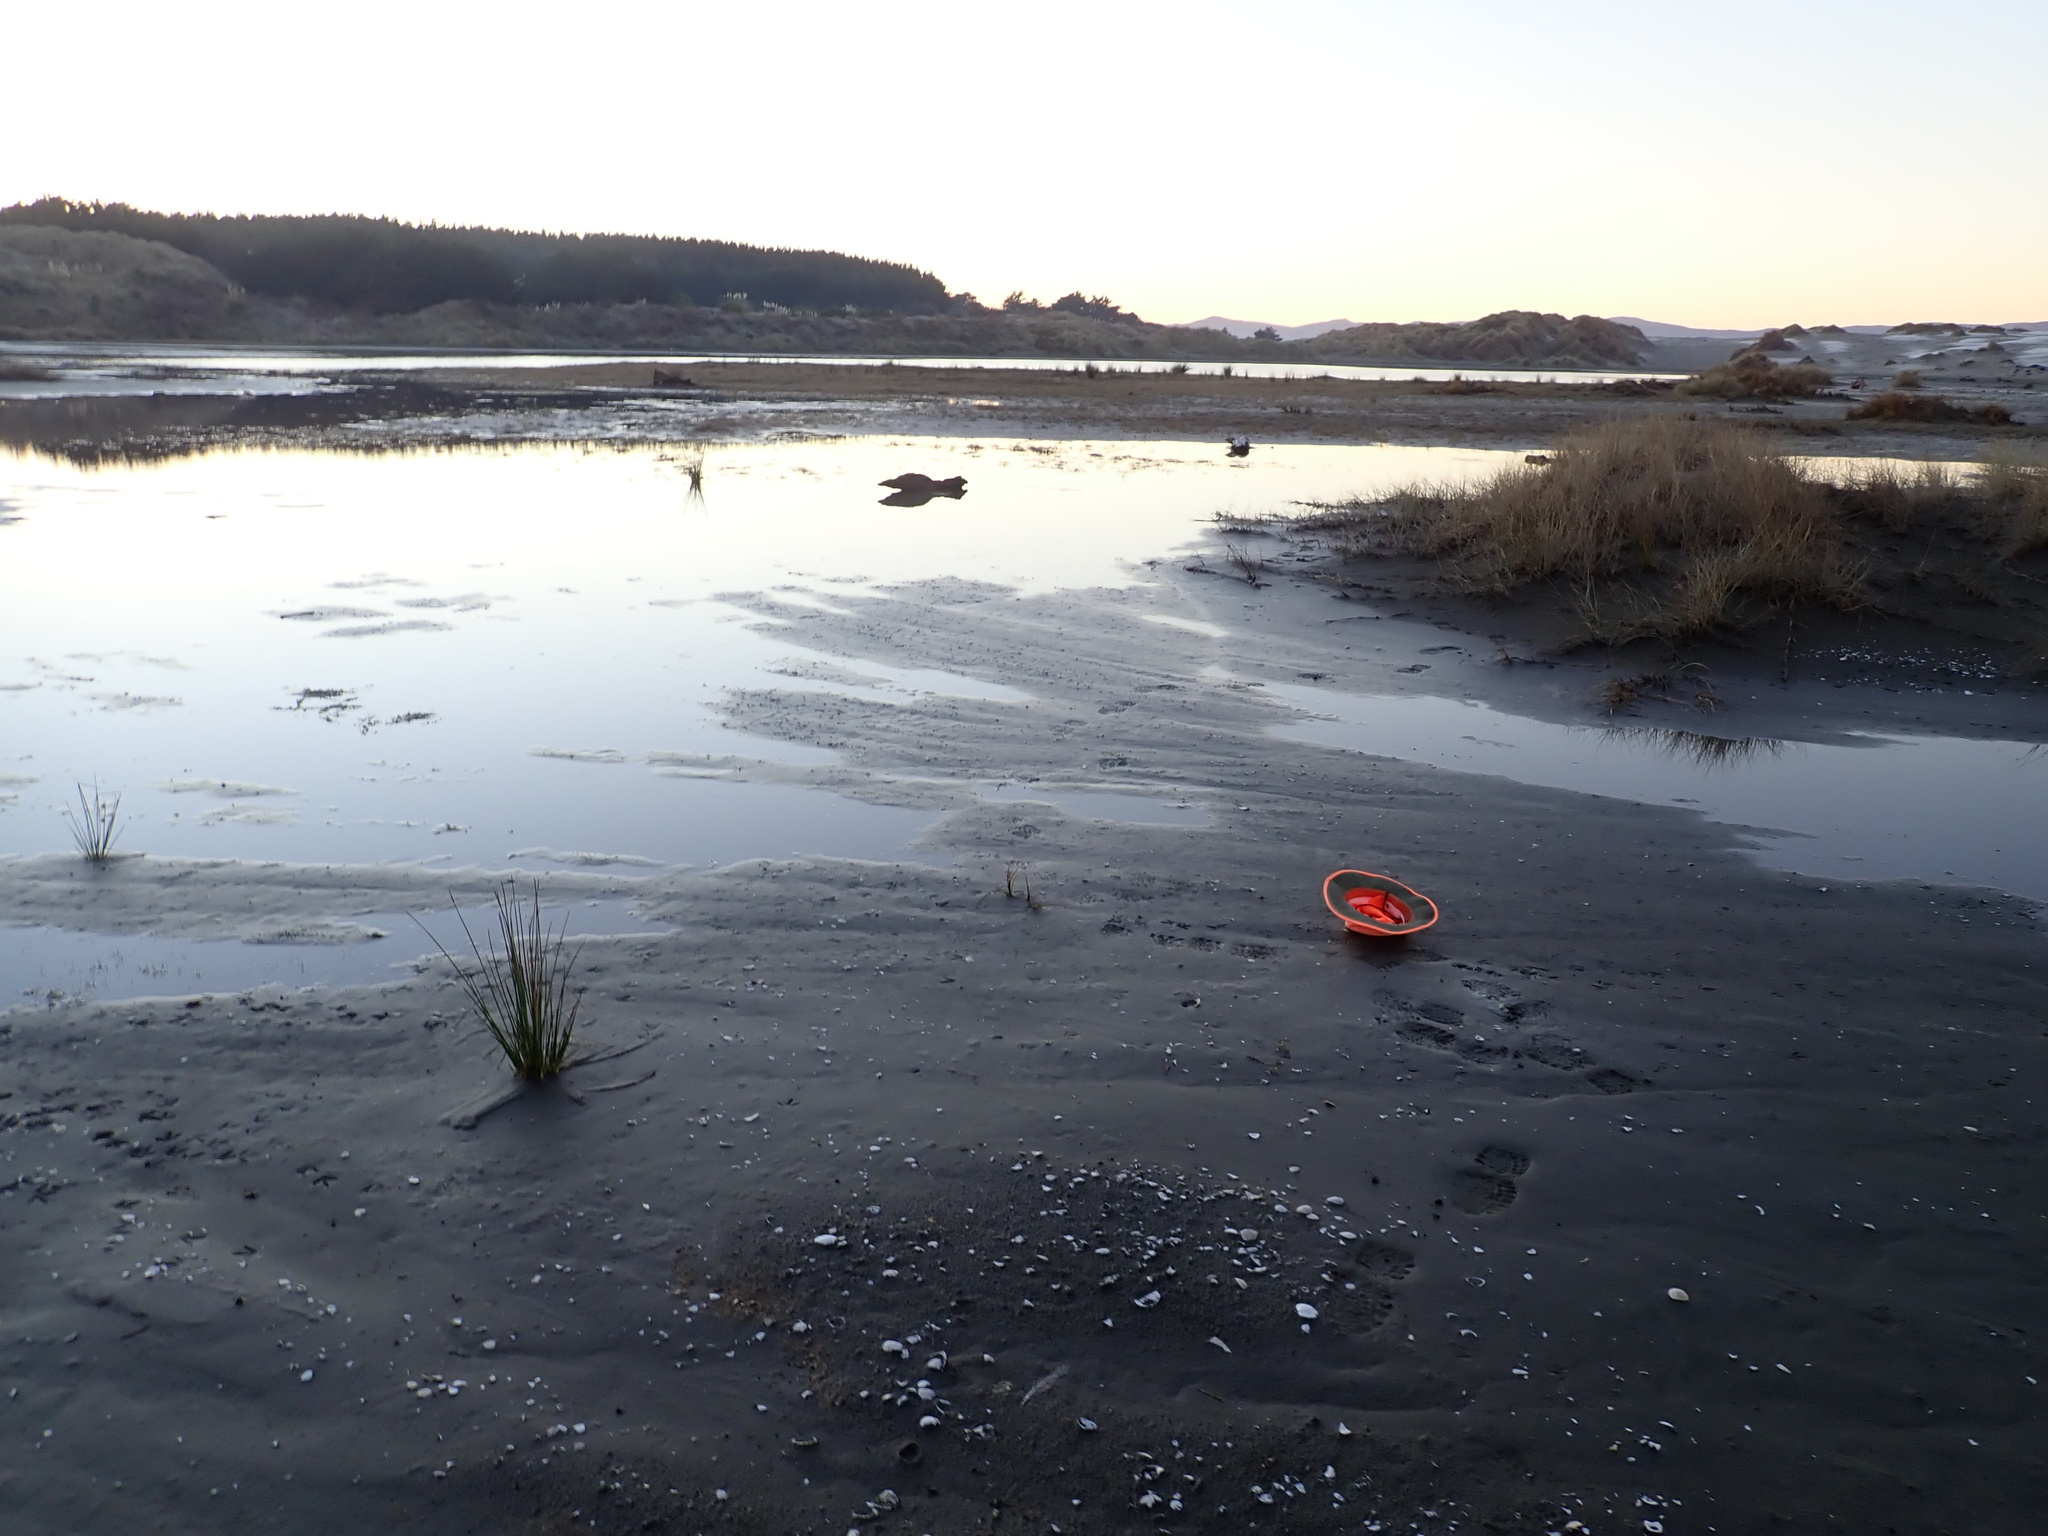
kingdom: Plantae
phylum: Tracheophyta
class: Magnoliopsida
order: Ranunculales
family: Ranunculaceae
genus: Ranunculus
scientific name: Ranunculus acaulis
